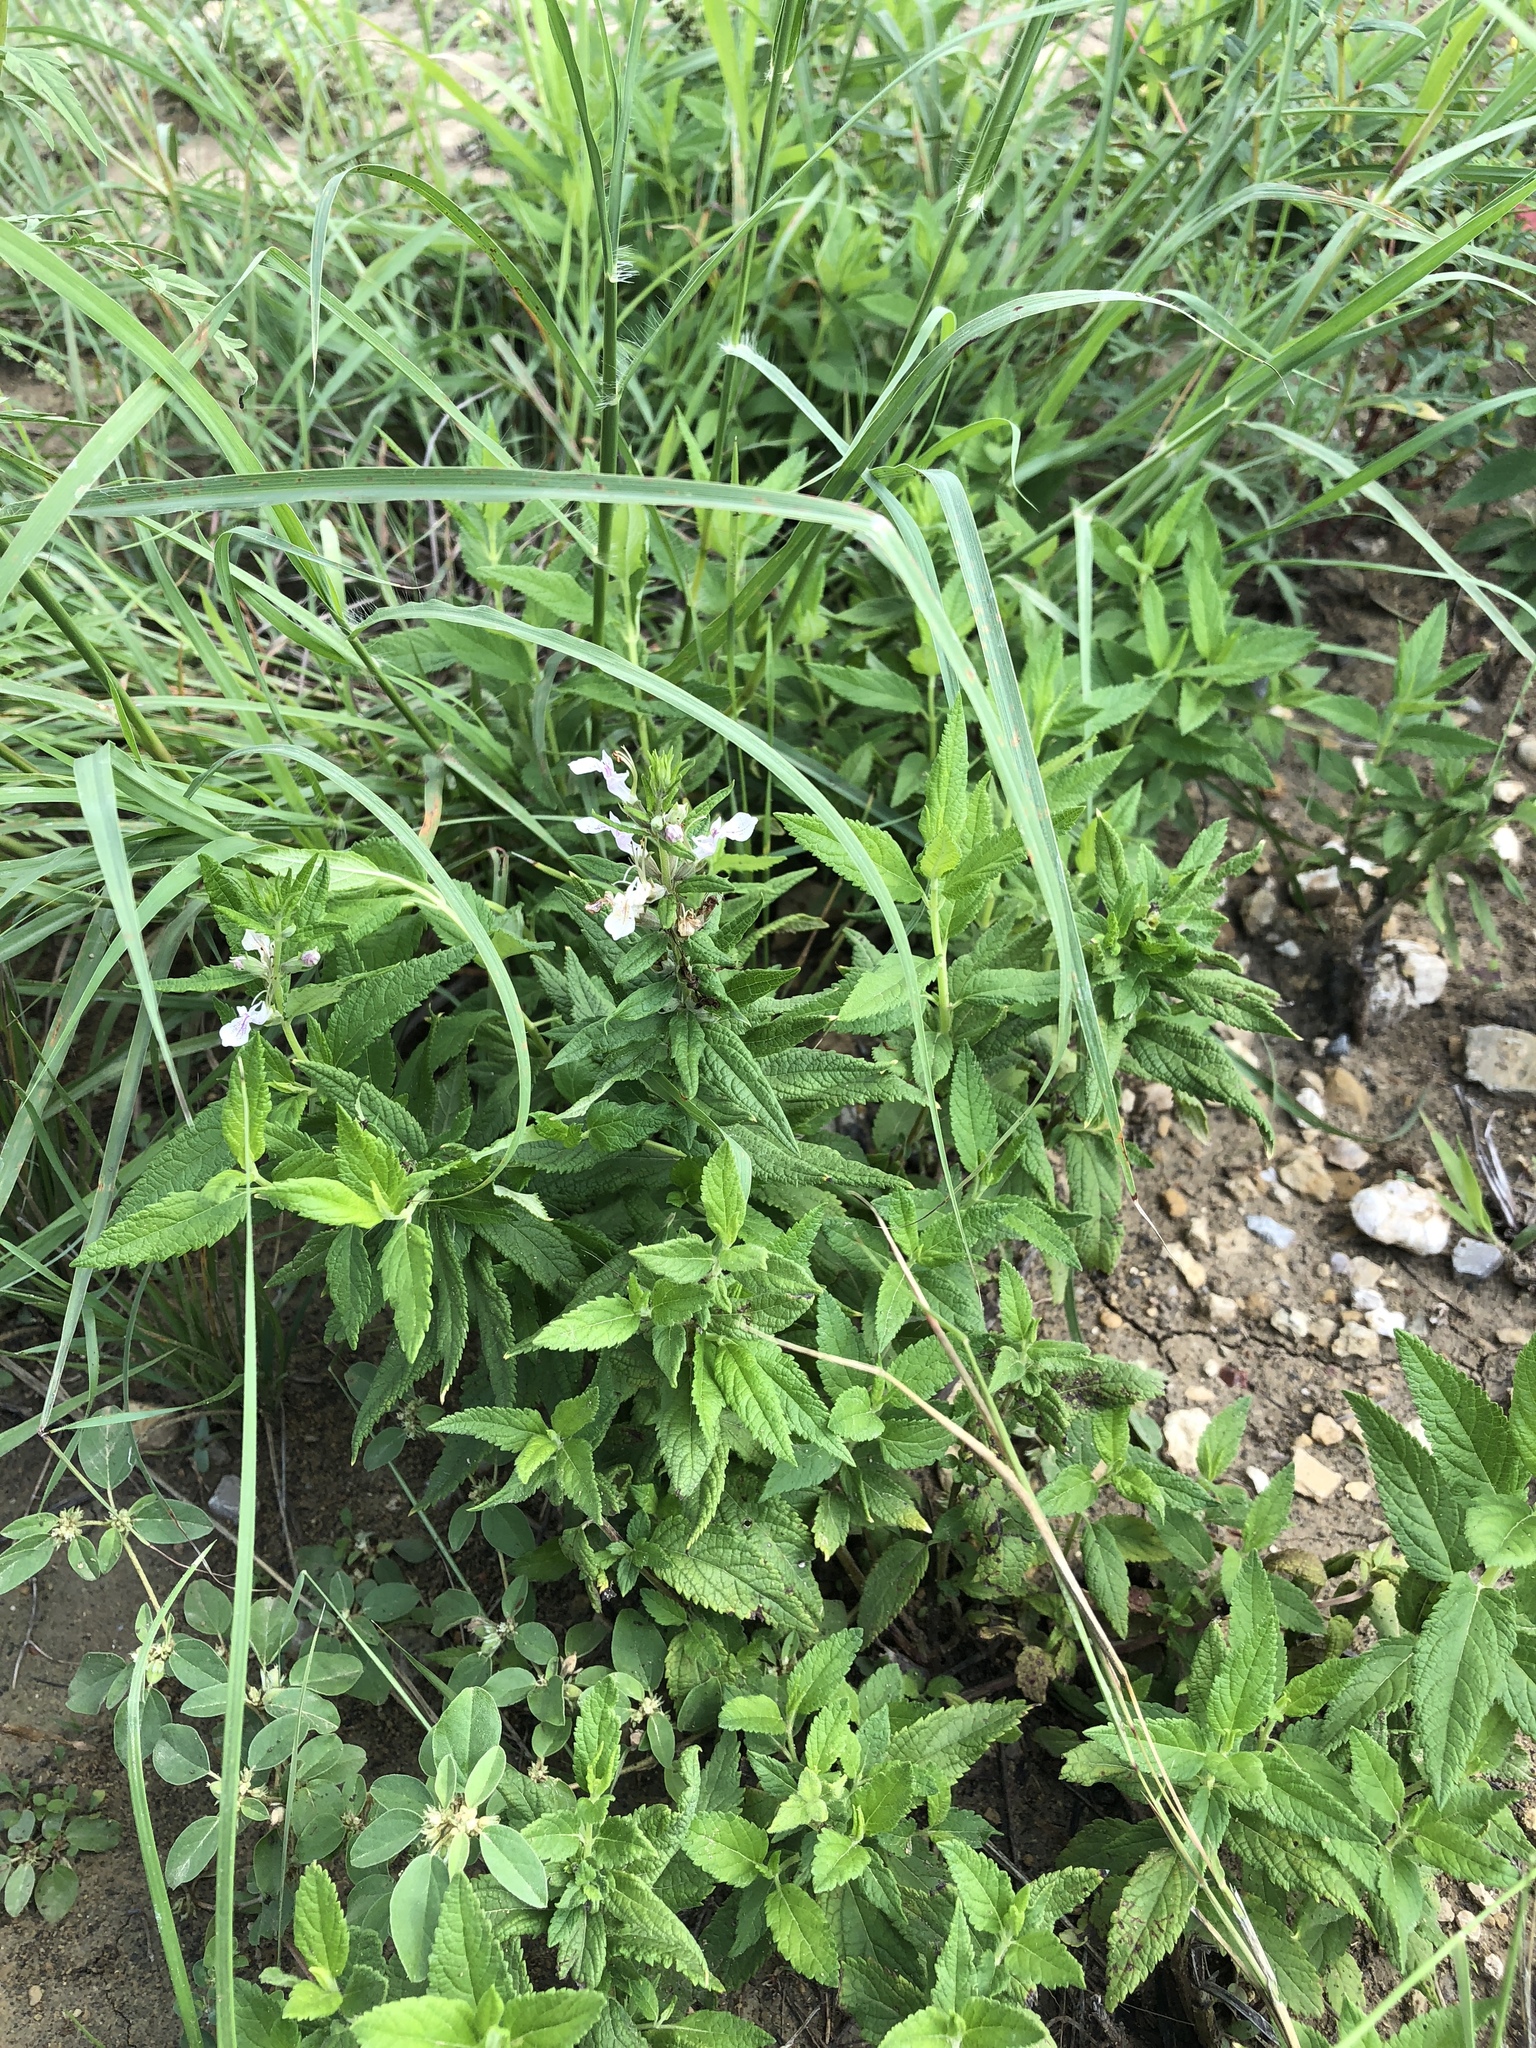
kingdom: Plantae
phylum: Tracheophyta
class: Magnoliopsida
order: Lamiales
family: Lamiaceae
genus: Teucrium
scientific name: Teucrium canadense
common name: American germander
